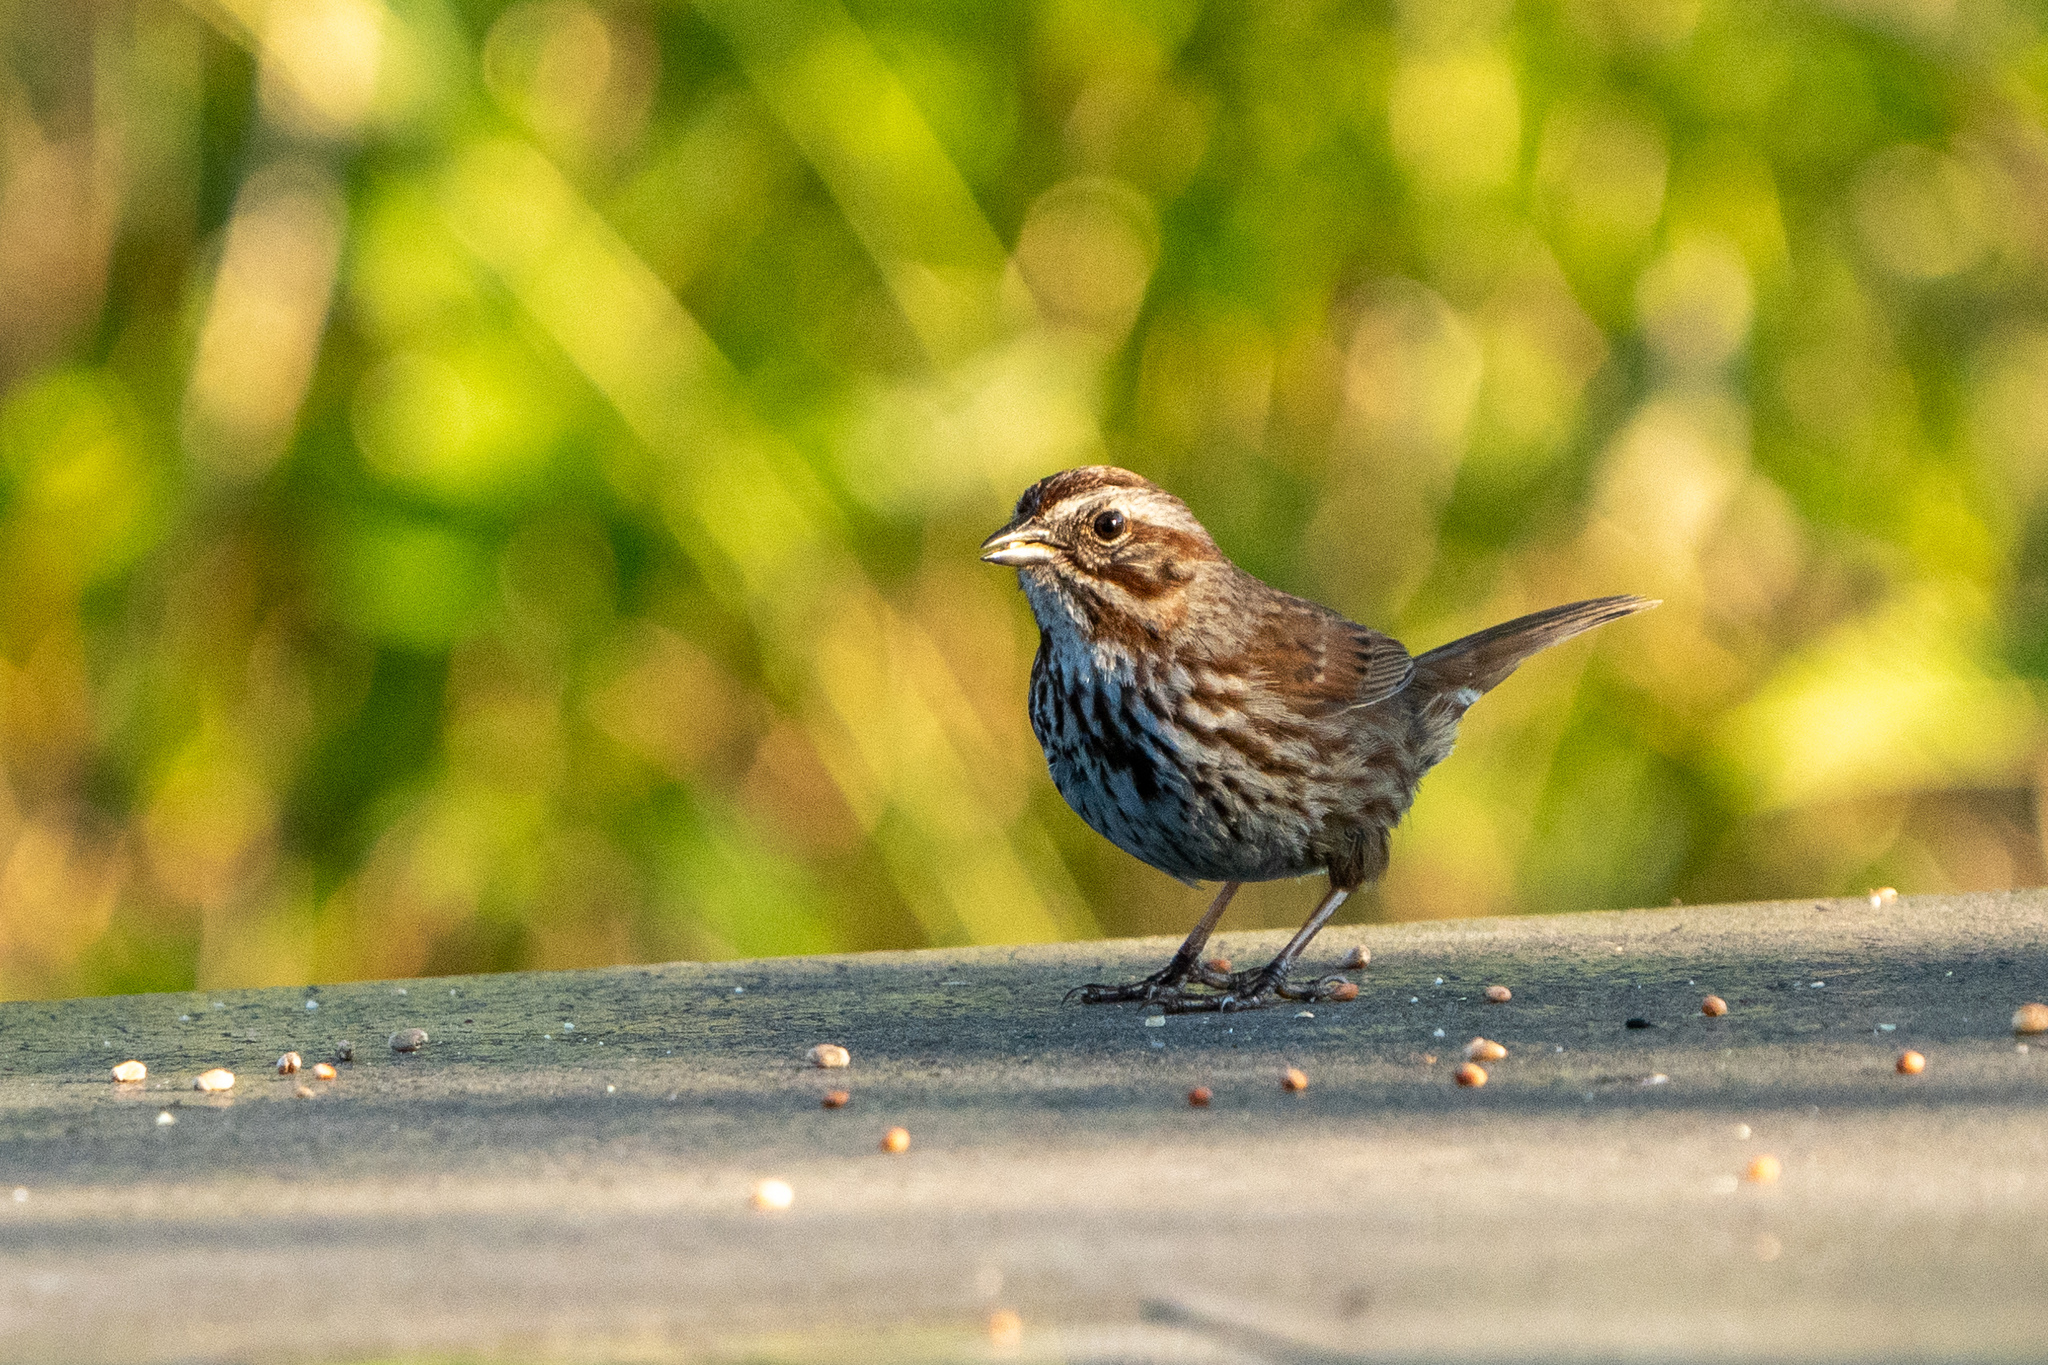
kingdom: Animalia
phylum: Chordata
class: Aves
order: Passeriformes
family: Passerellidae
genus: Melospiza
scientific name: Melospiza melodia
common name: Song sparrow
